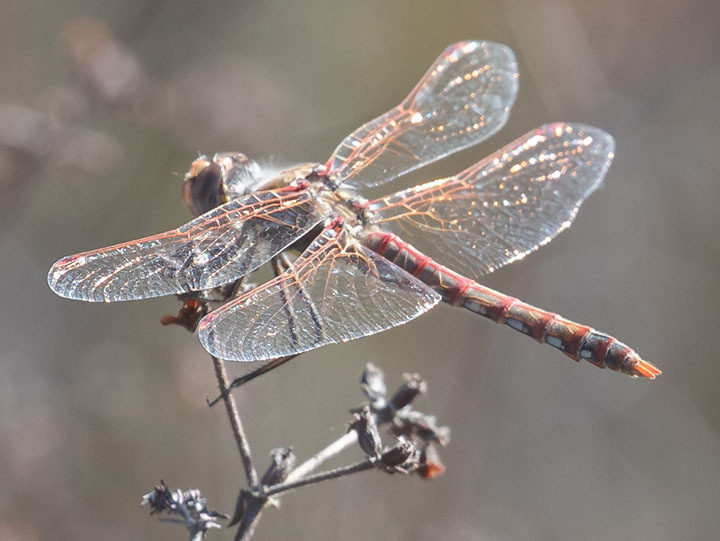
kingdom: Animalia
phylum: Arthropoda
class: Insecta
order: Odonata
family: Libellulidae
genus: Sympetrum
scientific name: Sympetrum corruptum
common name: Variegated meadowhawk
